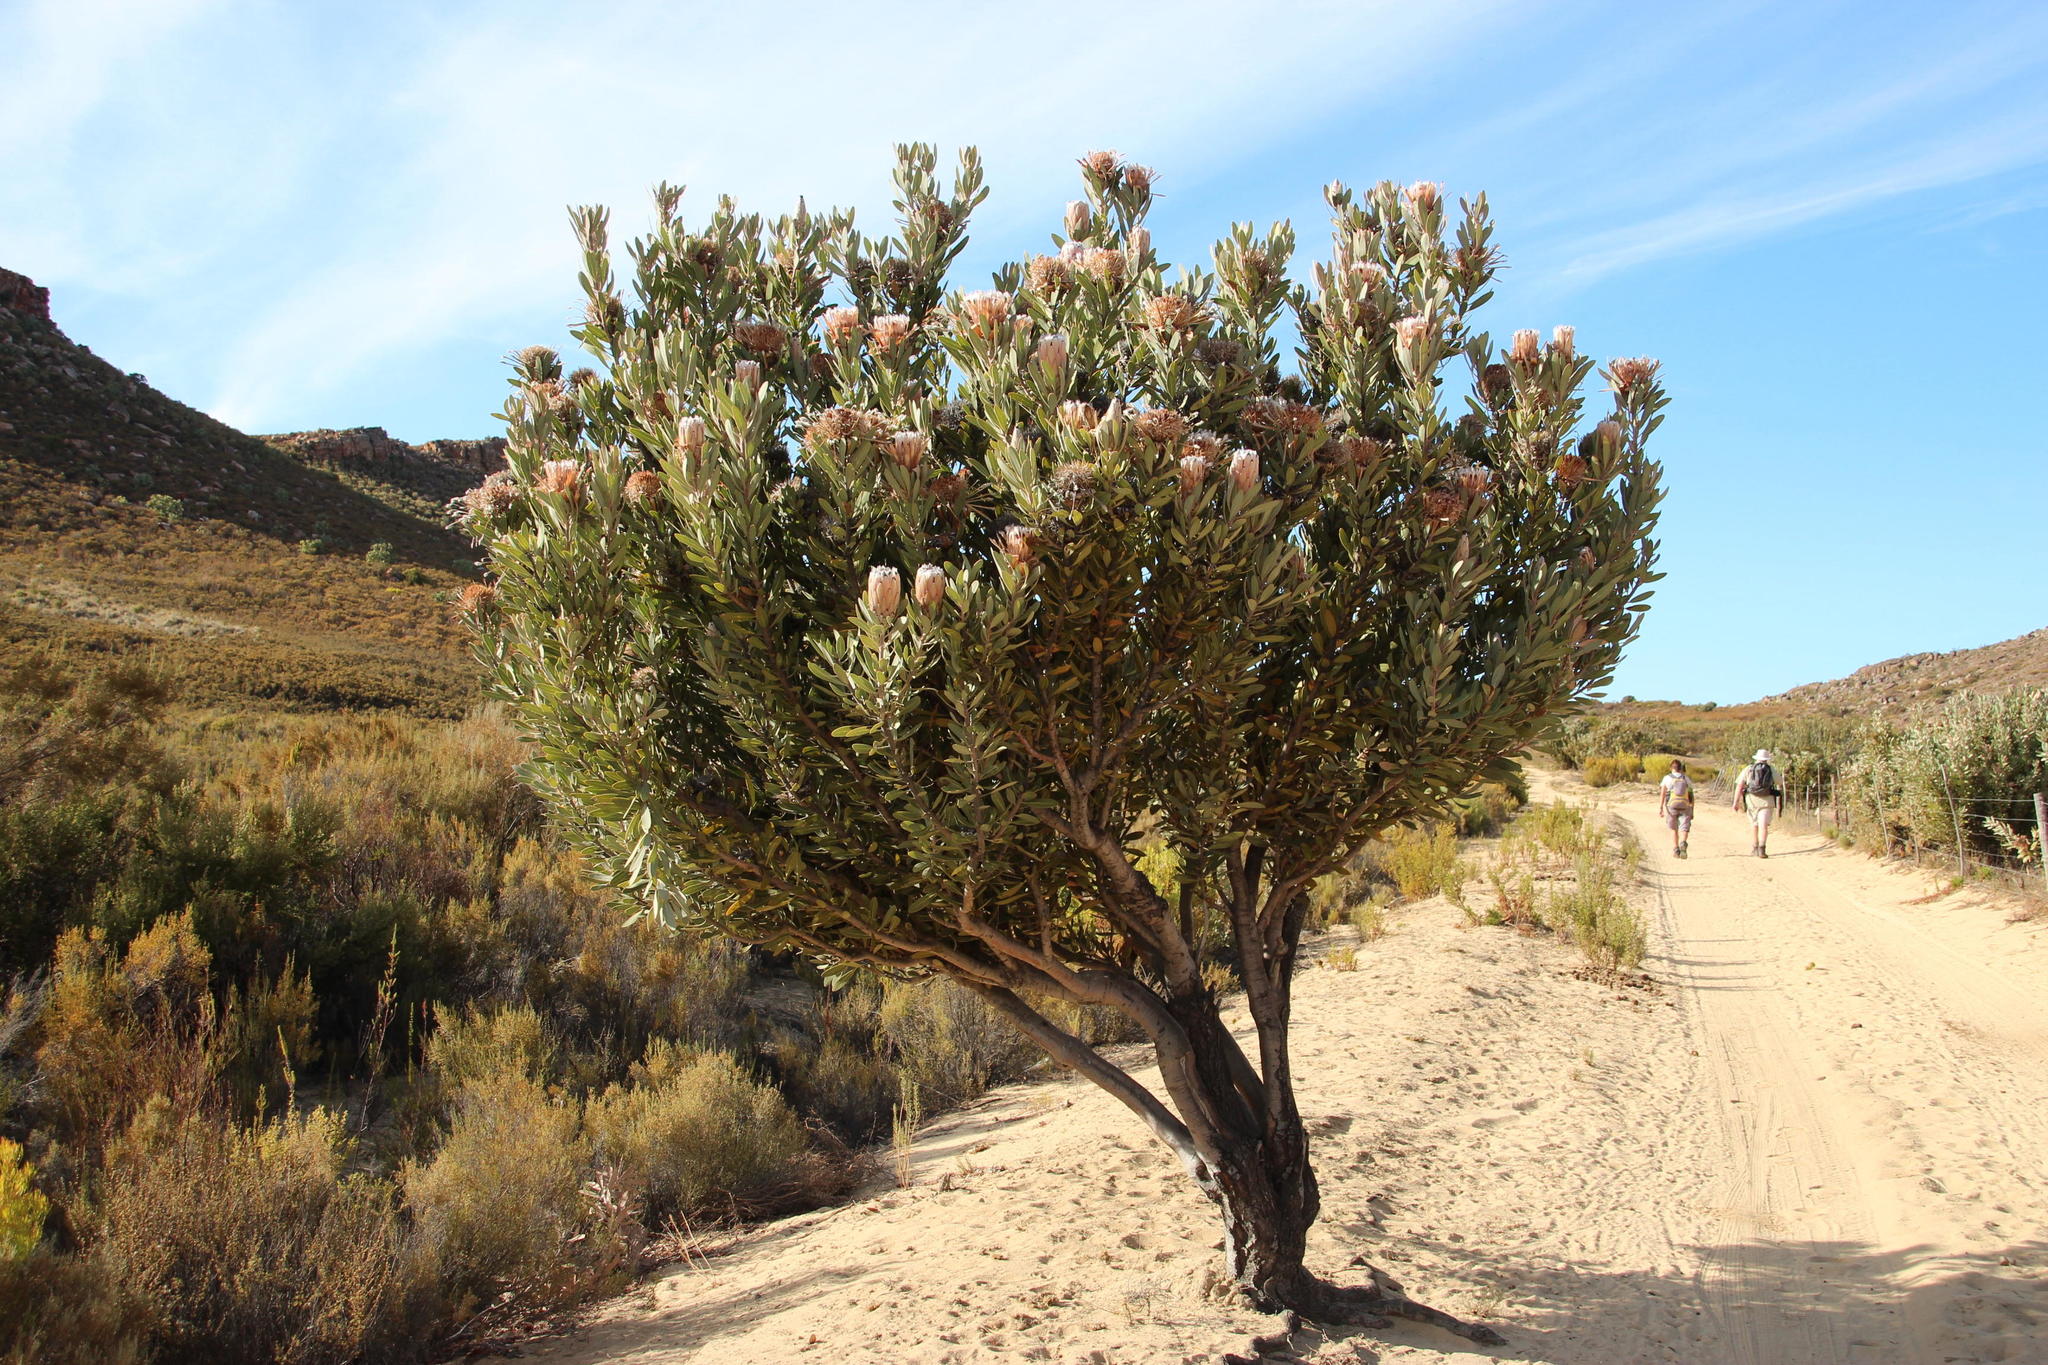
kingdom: Plantae
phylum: Tracheophyta
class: Magnoliopsida
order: Proteales
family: Proteaceae
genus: Protea
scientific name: Protea laurifolia
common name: Grey-leaf sugarbsh
